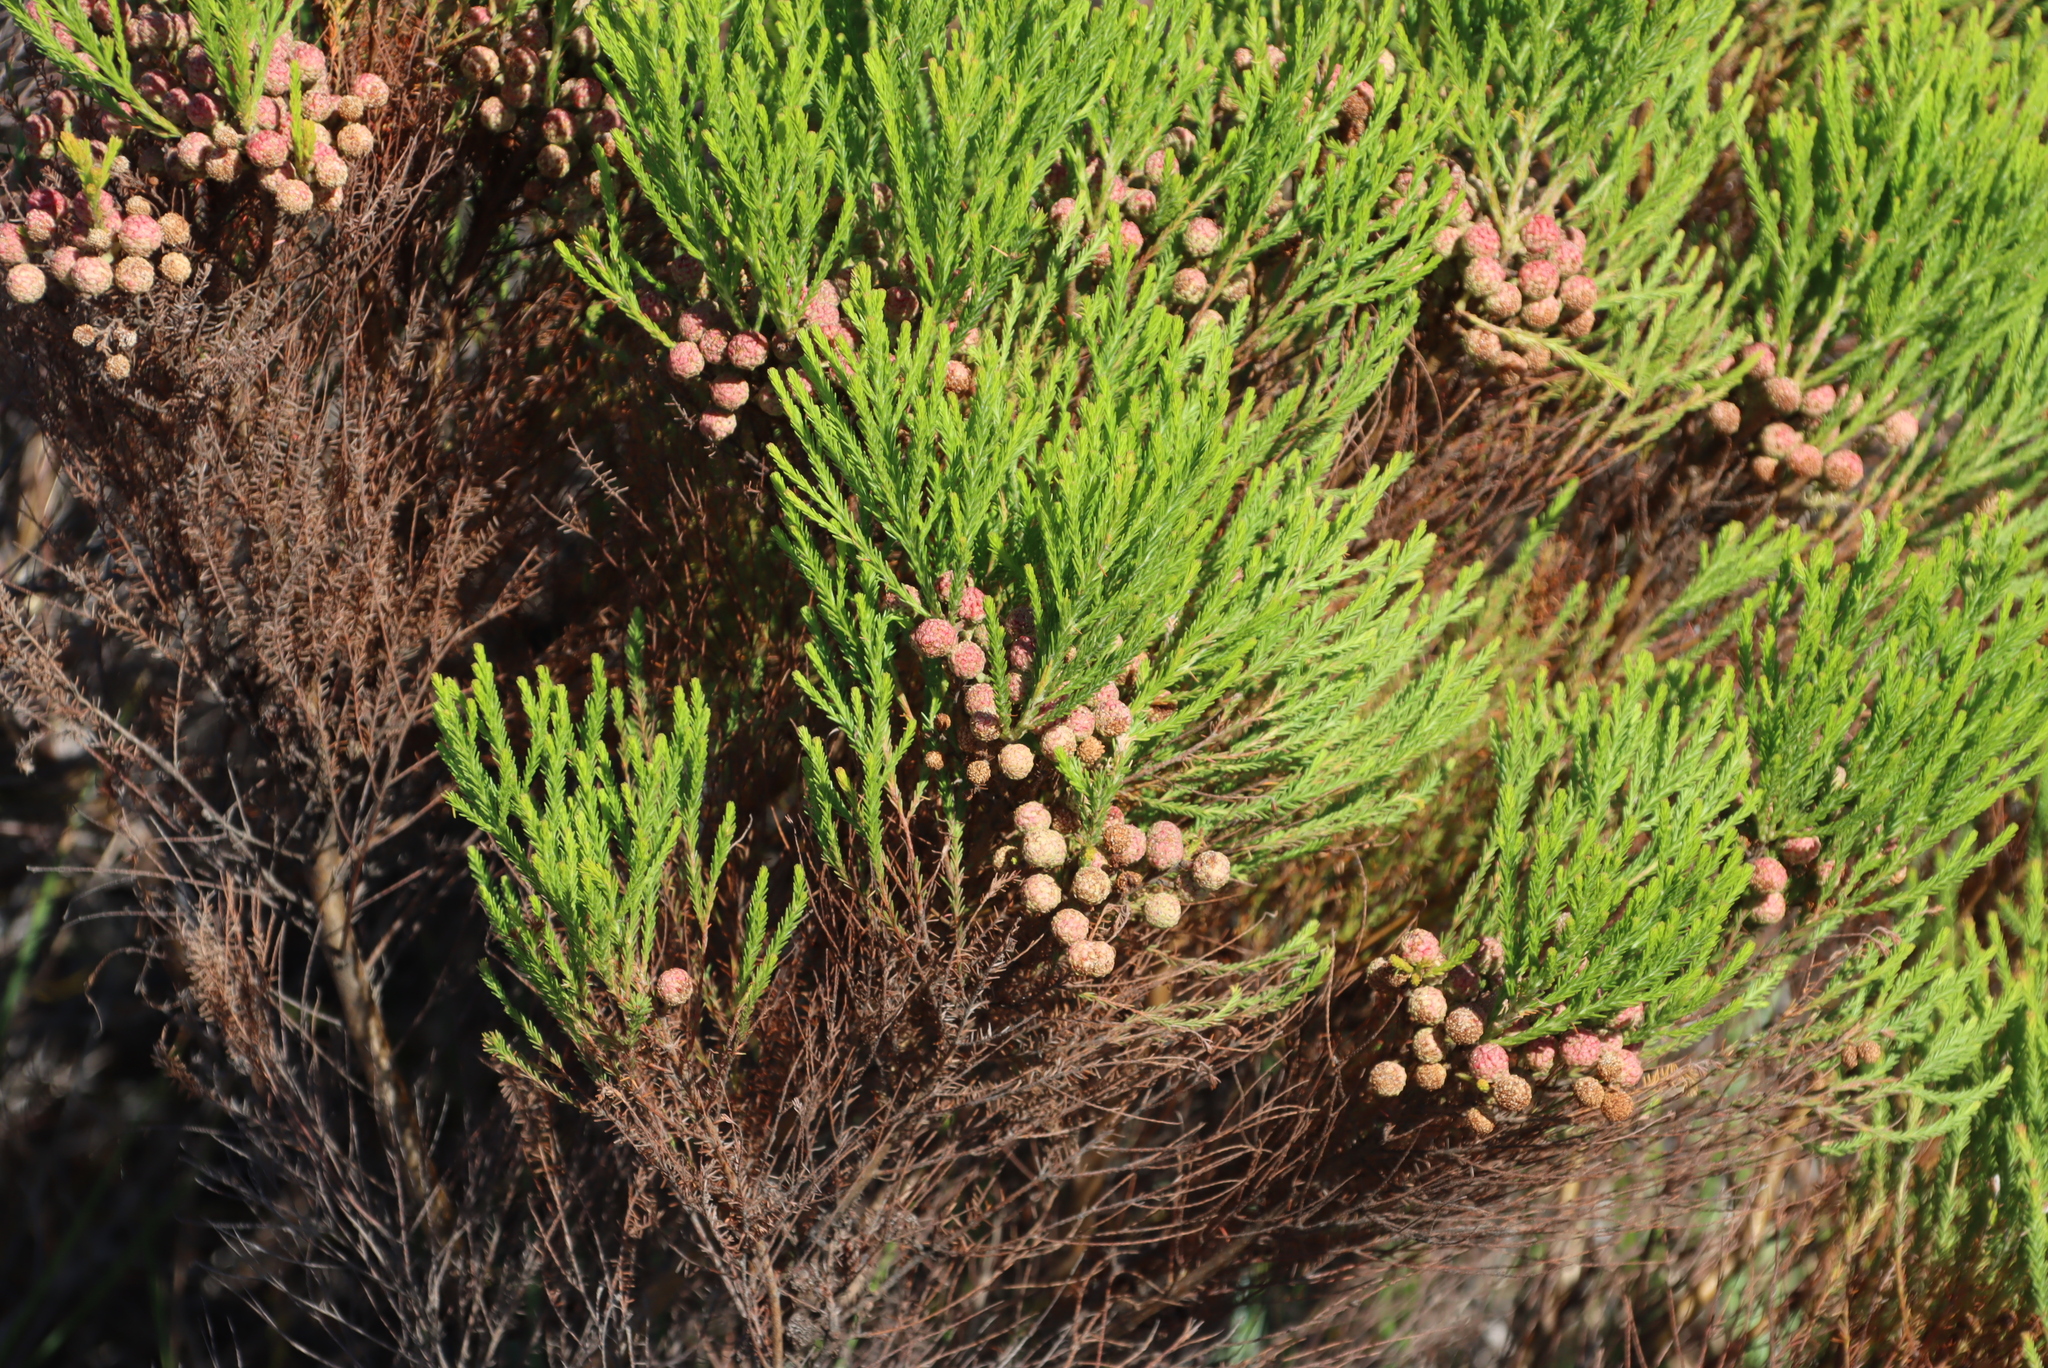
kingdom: Plantae
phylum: Tracheophyta
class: Magnoliopsida
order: Bruniales
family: Bruniaceae
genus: Berzelia
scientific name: Berzelia lanuginosa
